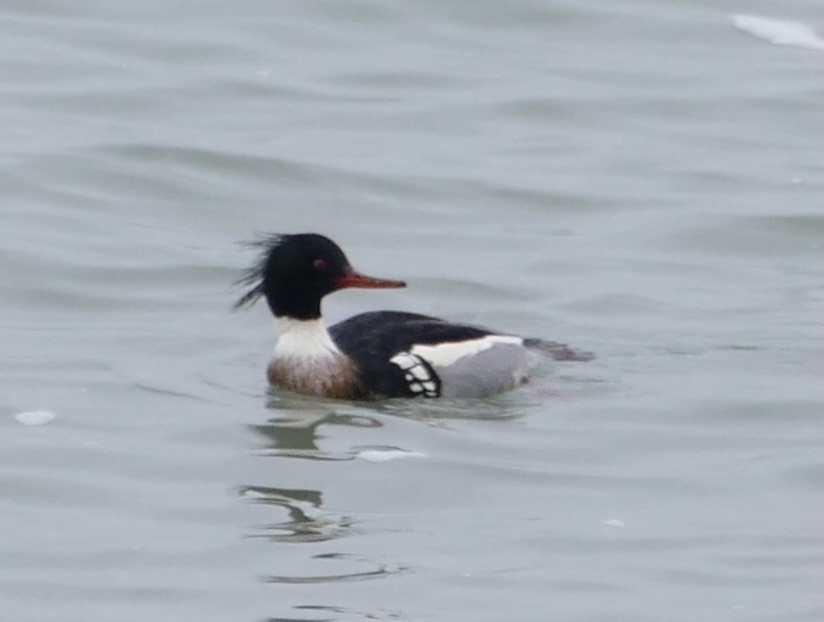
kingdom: Animalia
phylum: Chordata
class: Aves
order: Anseriformes
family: Anatidae
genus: Mergus
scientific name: Mergus serrator
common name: Red-breasted merganser
